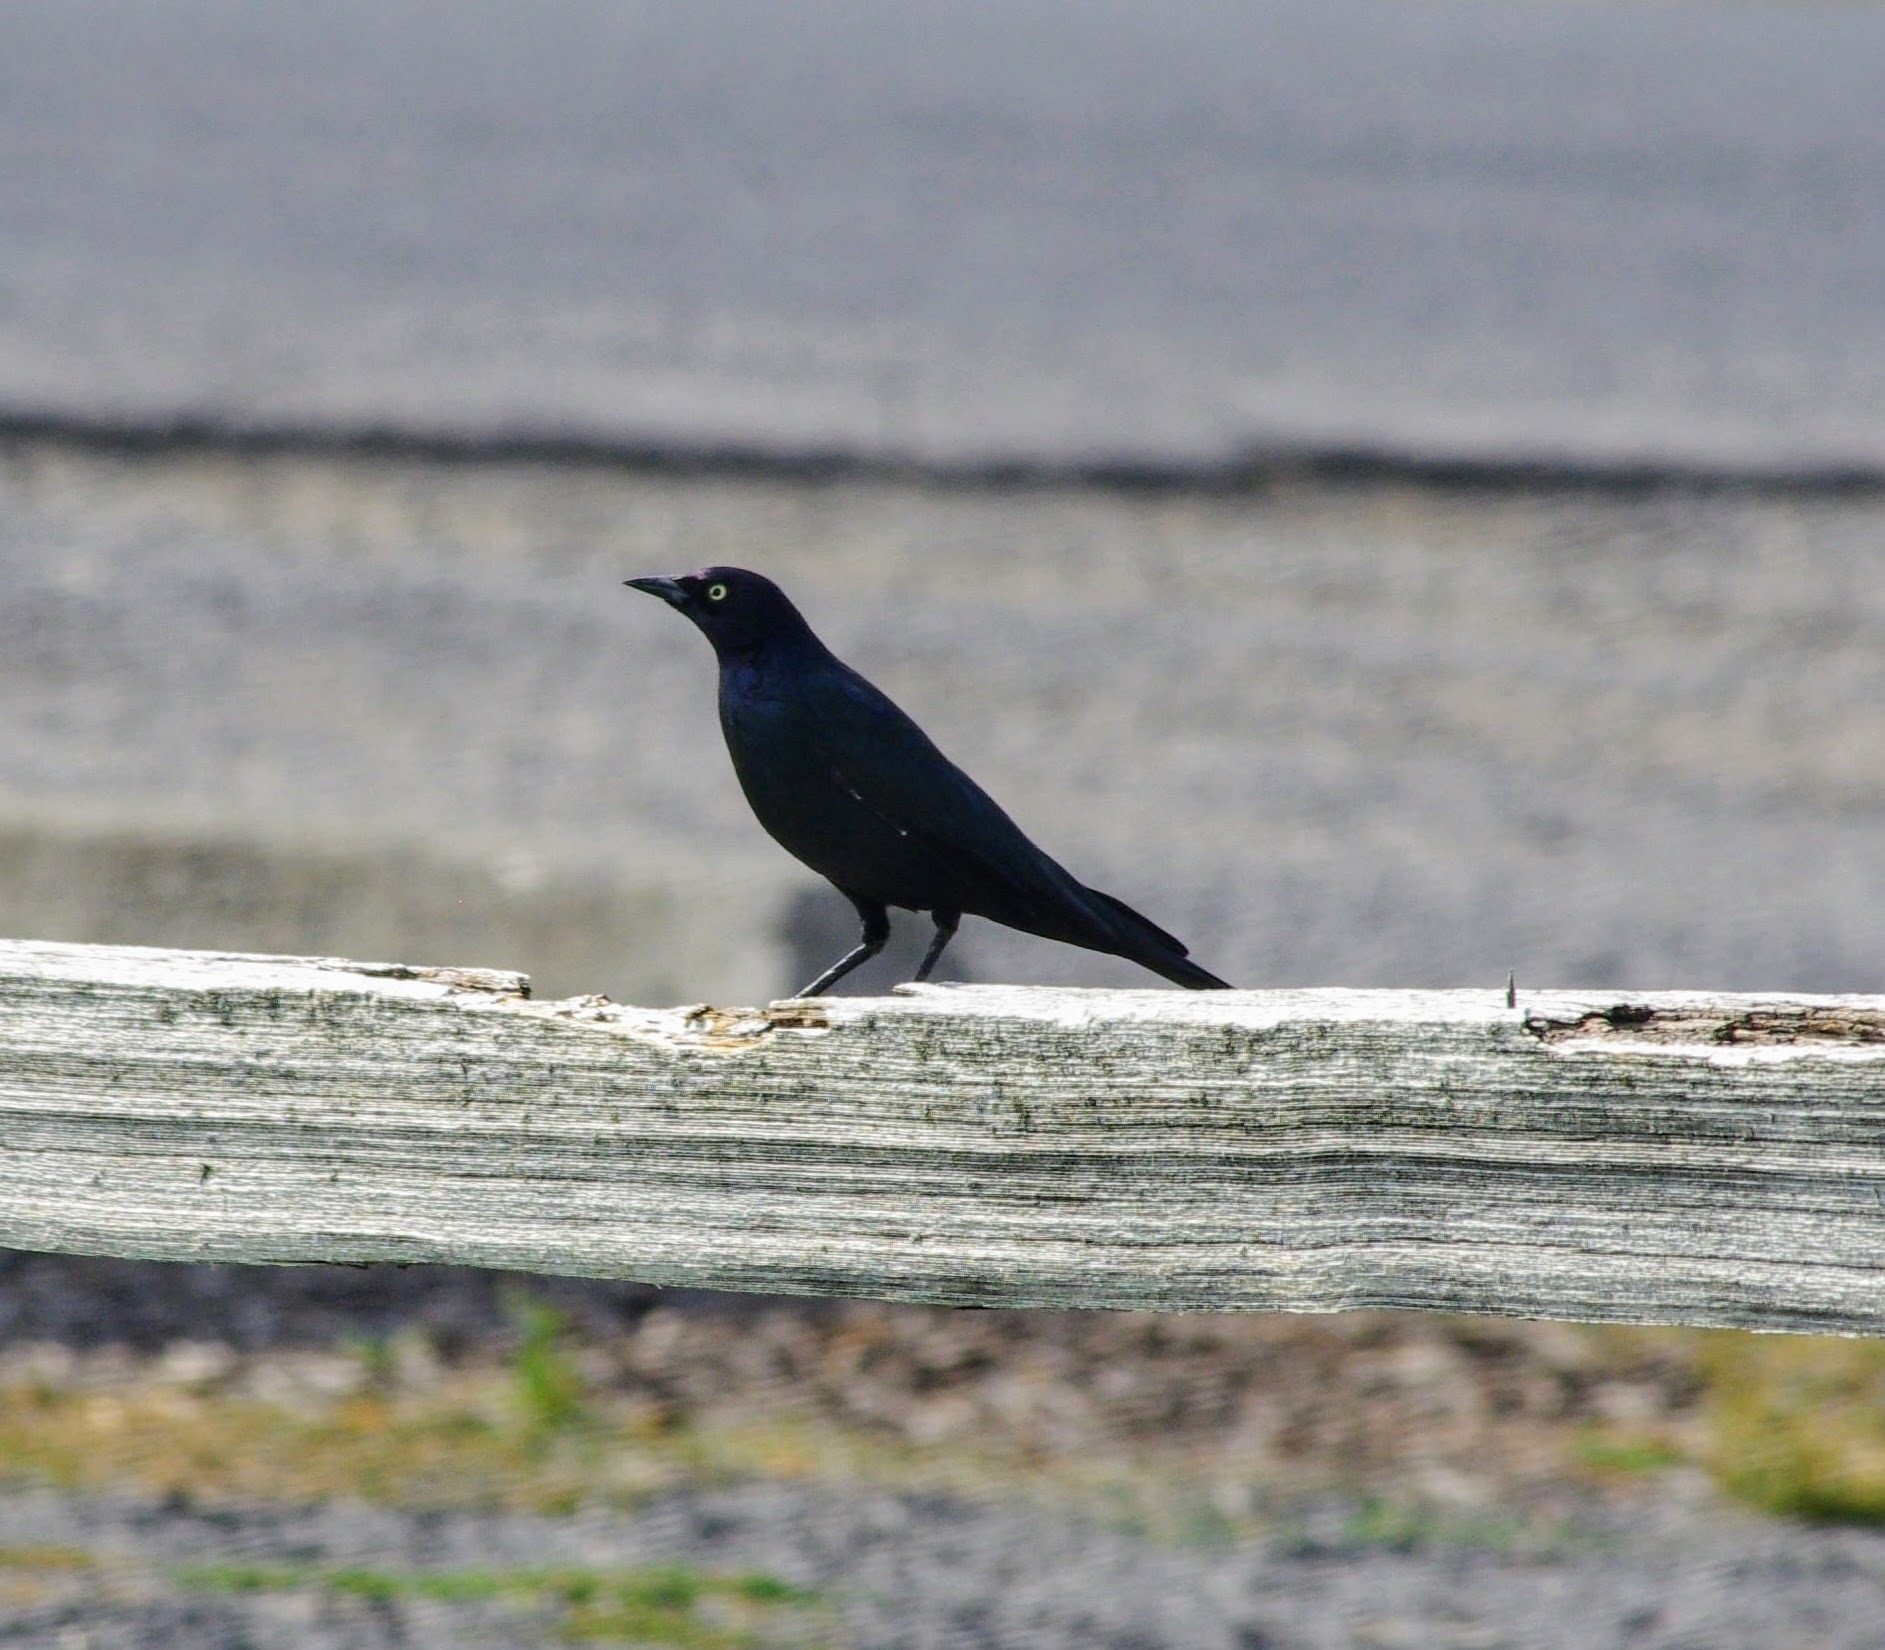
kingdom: Animalia
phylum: Chordata
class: Aves
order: Passeriformes
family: Icteridae
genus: Euphagus
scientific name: Euphagus cyanocephalus
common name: Brewer's blackbird
